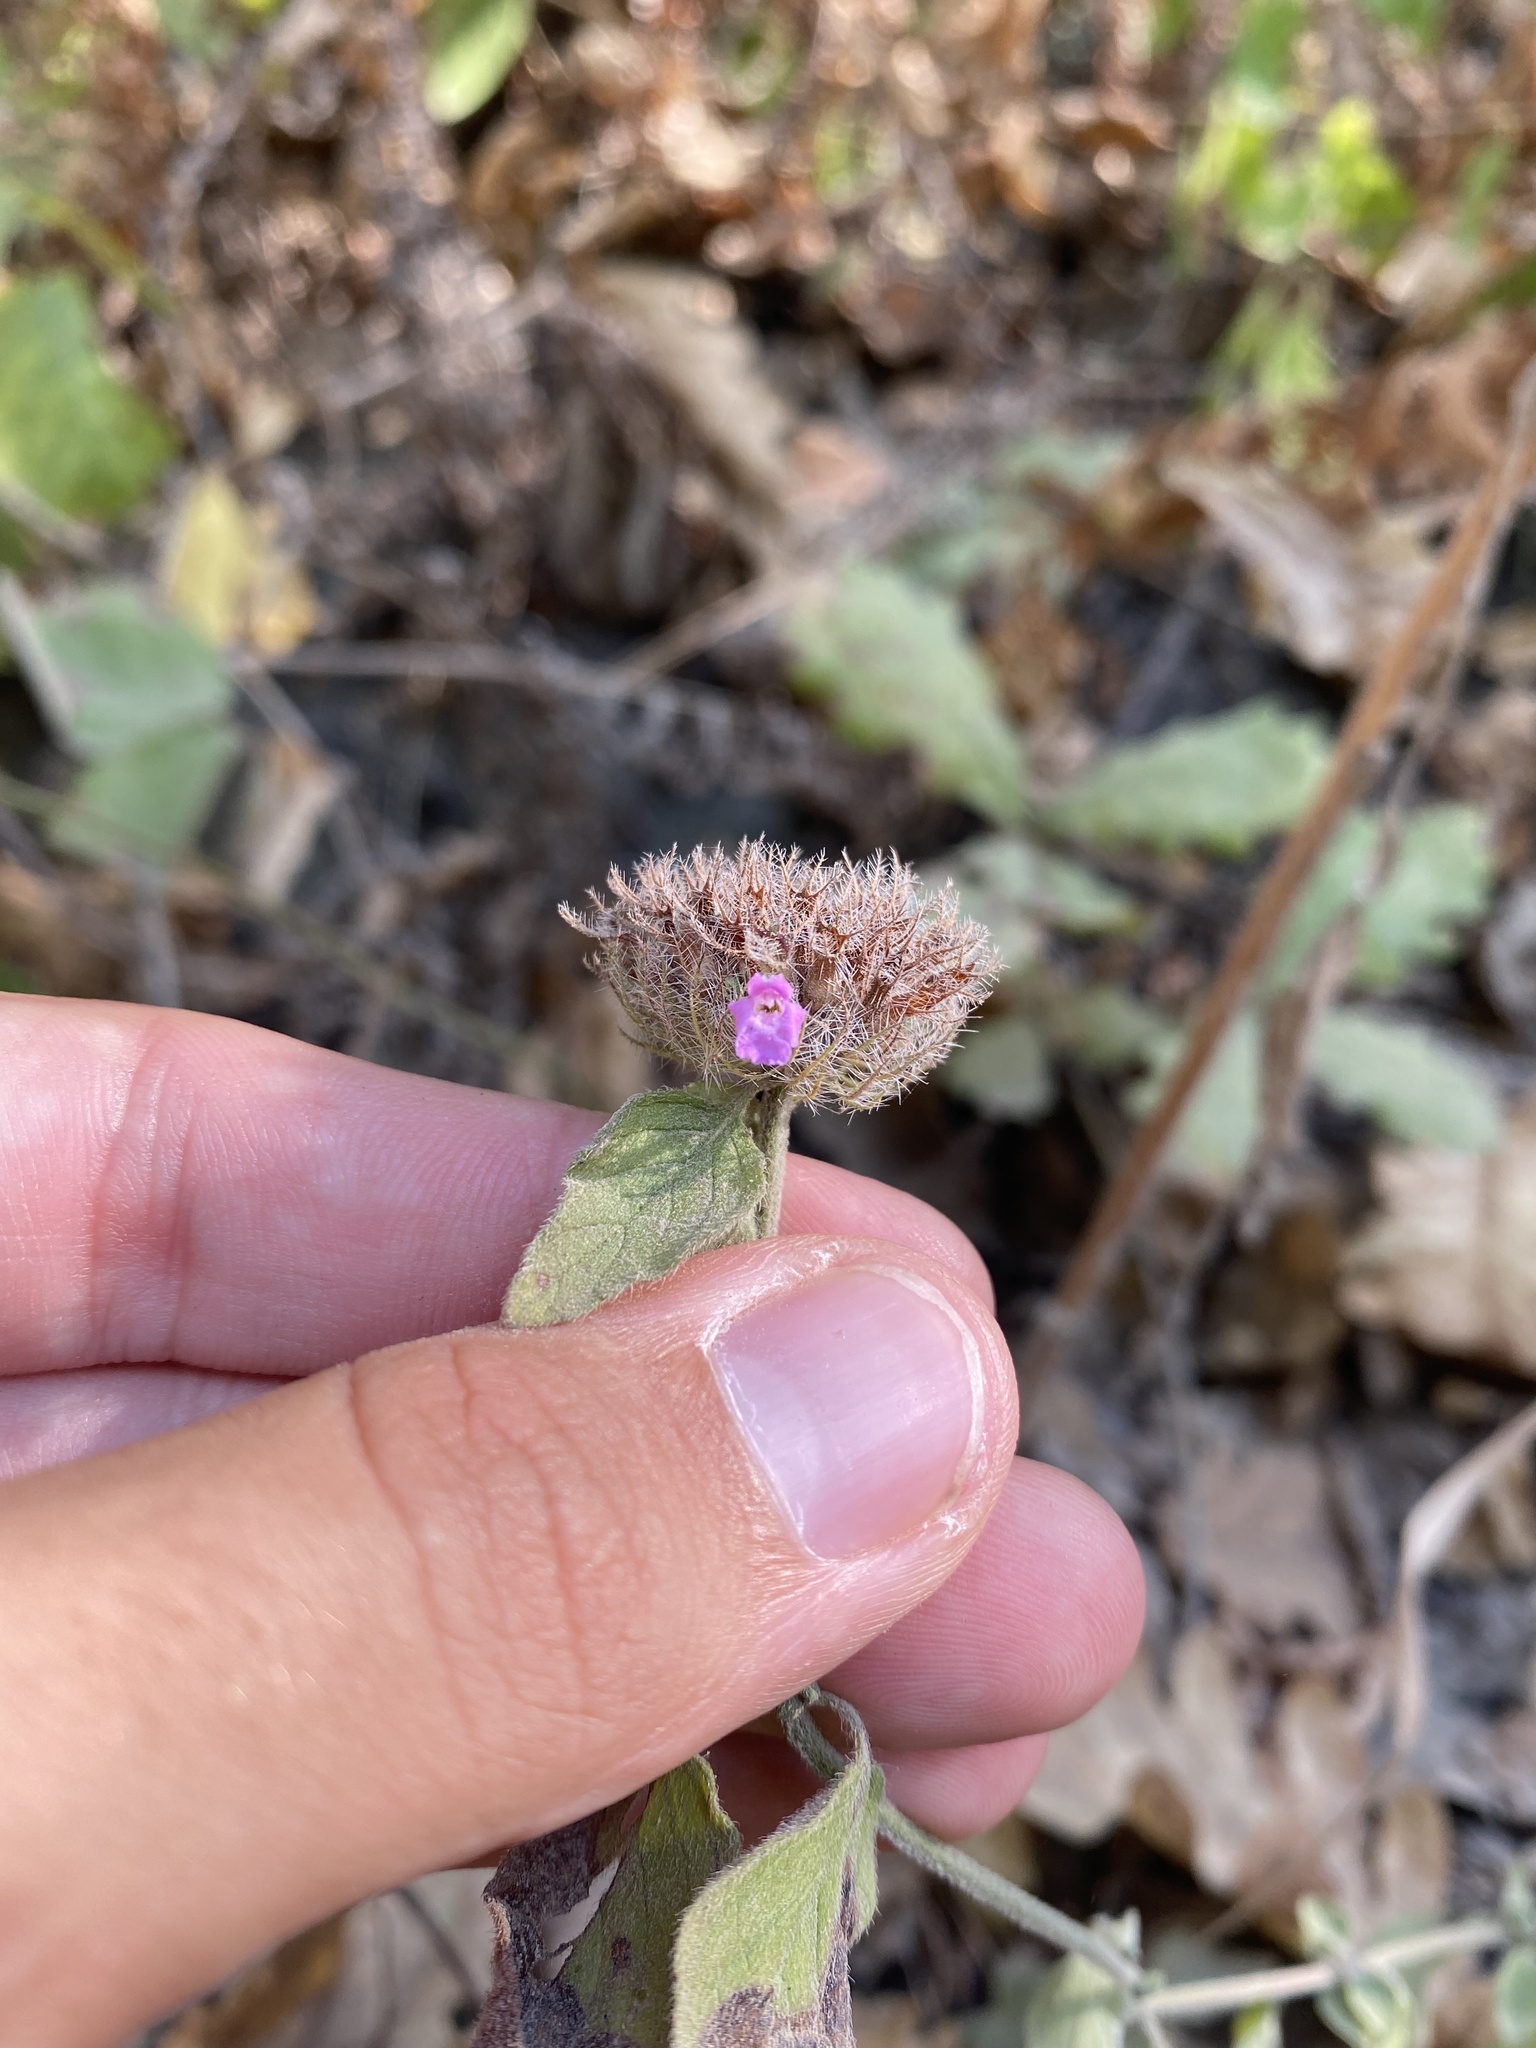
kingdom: Plantae
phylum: Tracheophyta
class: Magnoliopsida
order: Lamiales
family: Lamiaceae
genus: Clinopodium
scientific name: Clinopodium caucasicum
